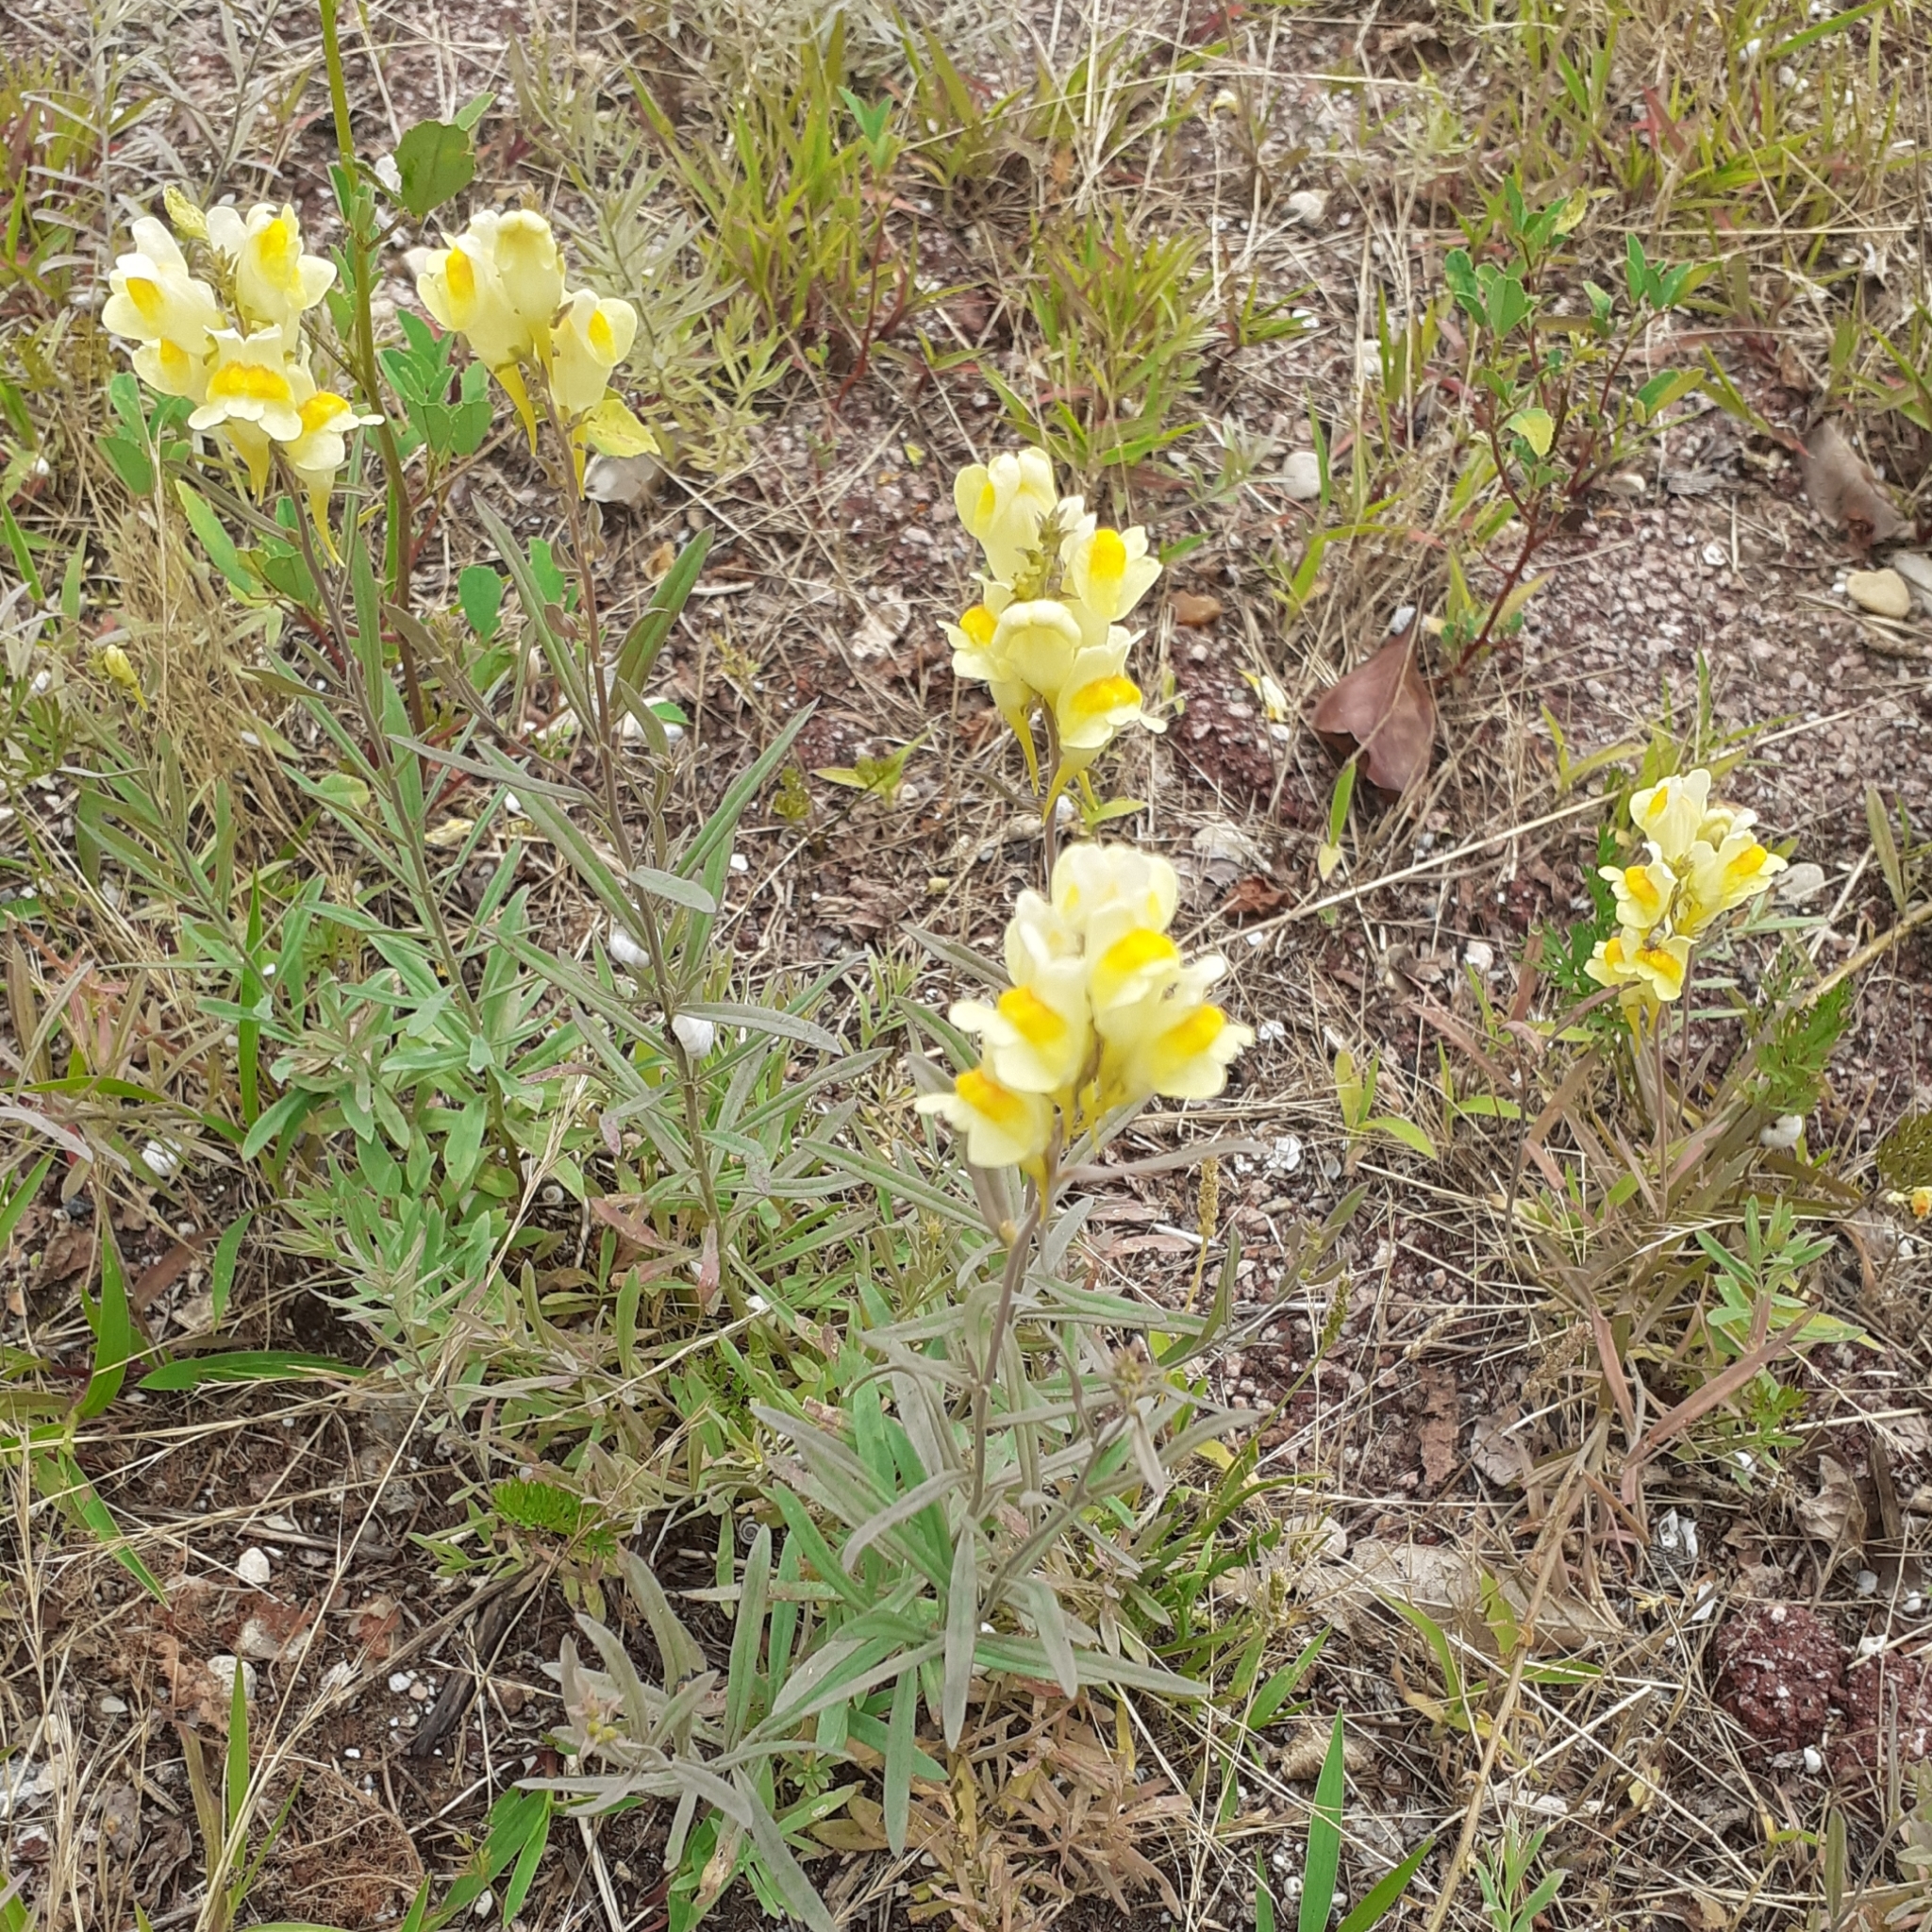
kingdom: Plantae
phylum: Tracheophyta
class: Magnoliopsida
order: Lamiales
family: Plantaginaceae
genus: Linaria
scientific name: Linaria vulgaris
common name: Butter and eggs
